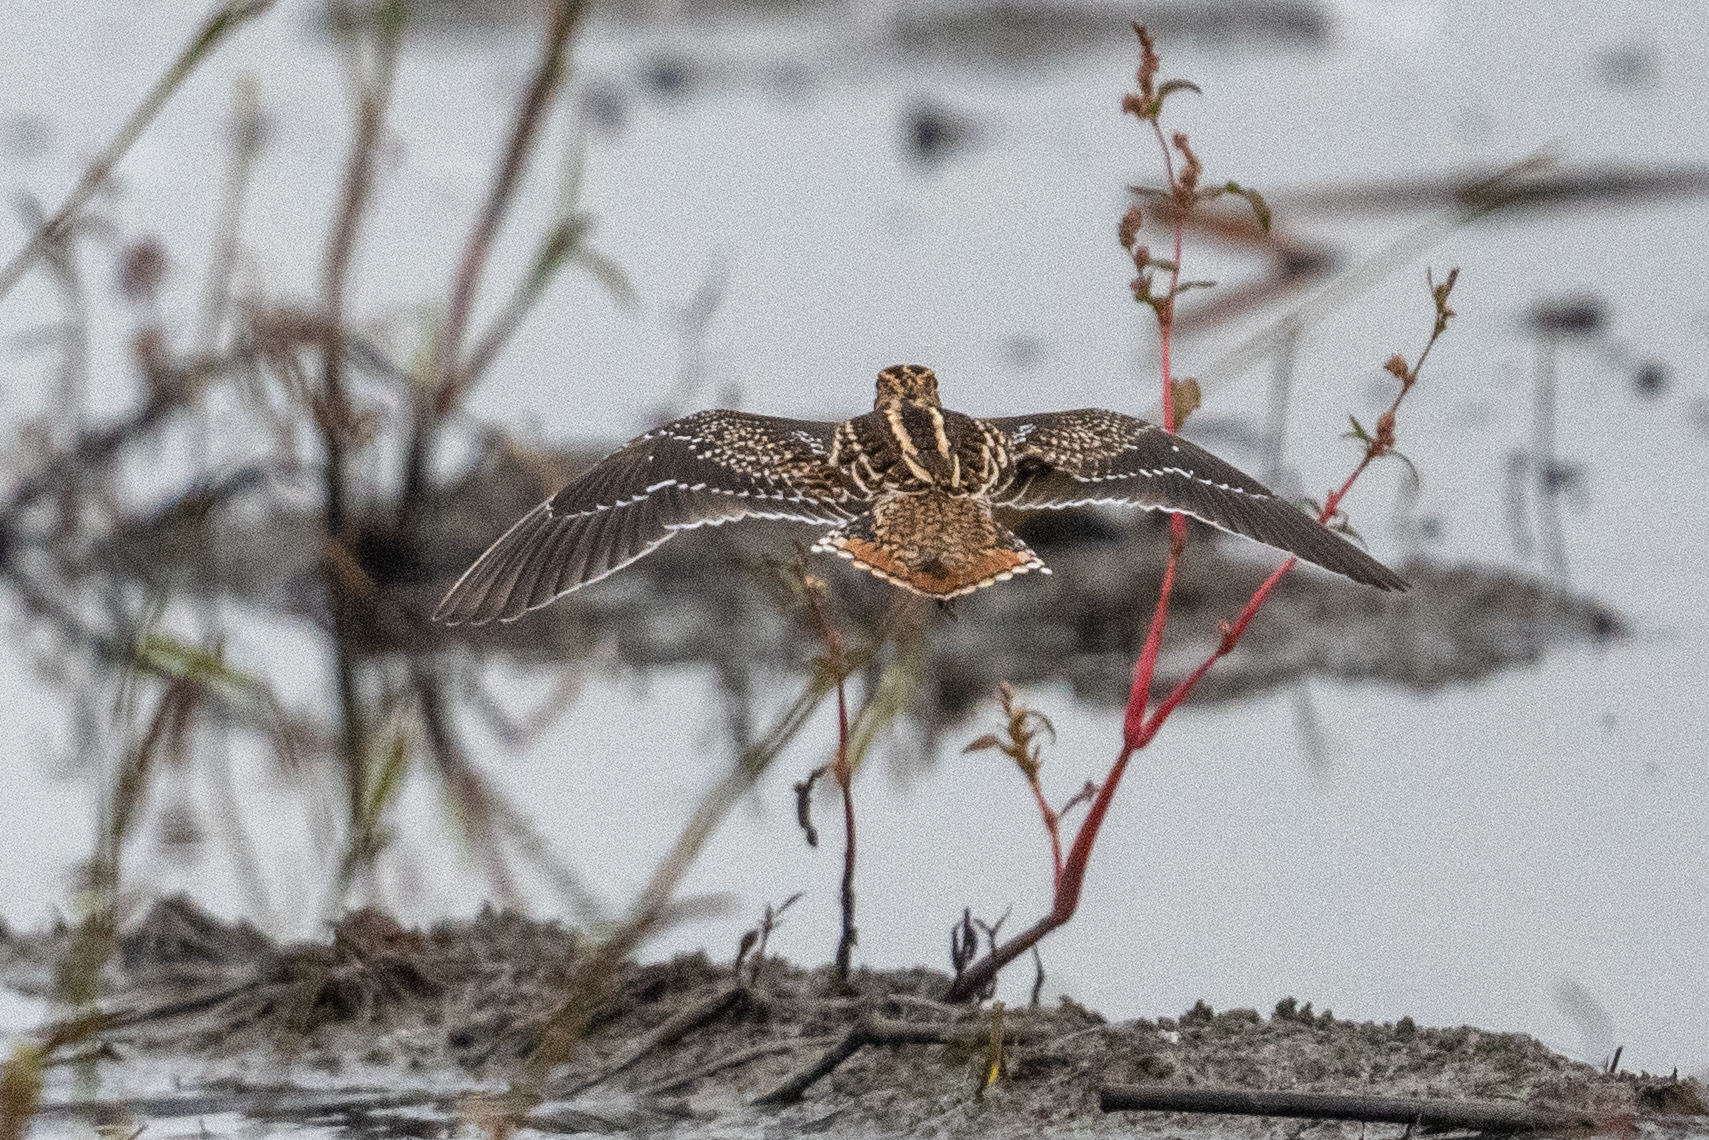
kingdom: Animalia
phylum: Chordata
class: Aves
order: Charadriiformes
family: Scolopacidae
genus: Gallinago
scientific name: Gallinago delicata
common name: Wilson's snipe
